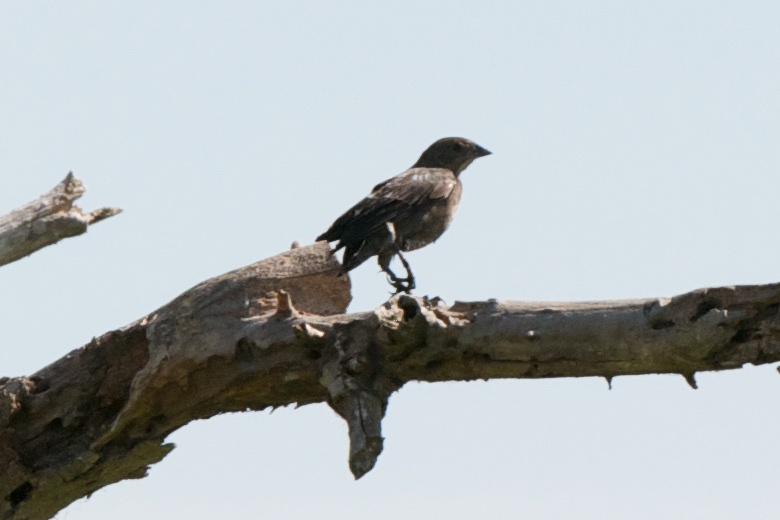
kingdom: Animalia
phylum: Chordata
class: Aves
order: Passeriformes
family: Icteridae
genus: Molothrus
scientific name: Molothrus ater
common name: Brown-headed cowbird
